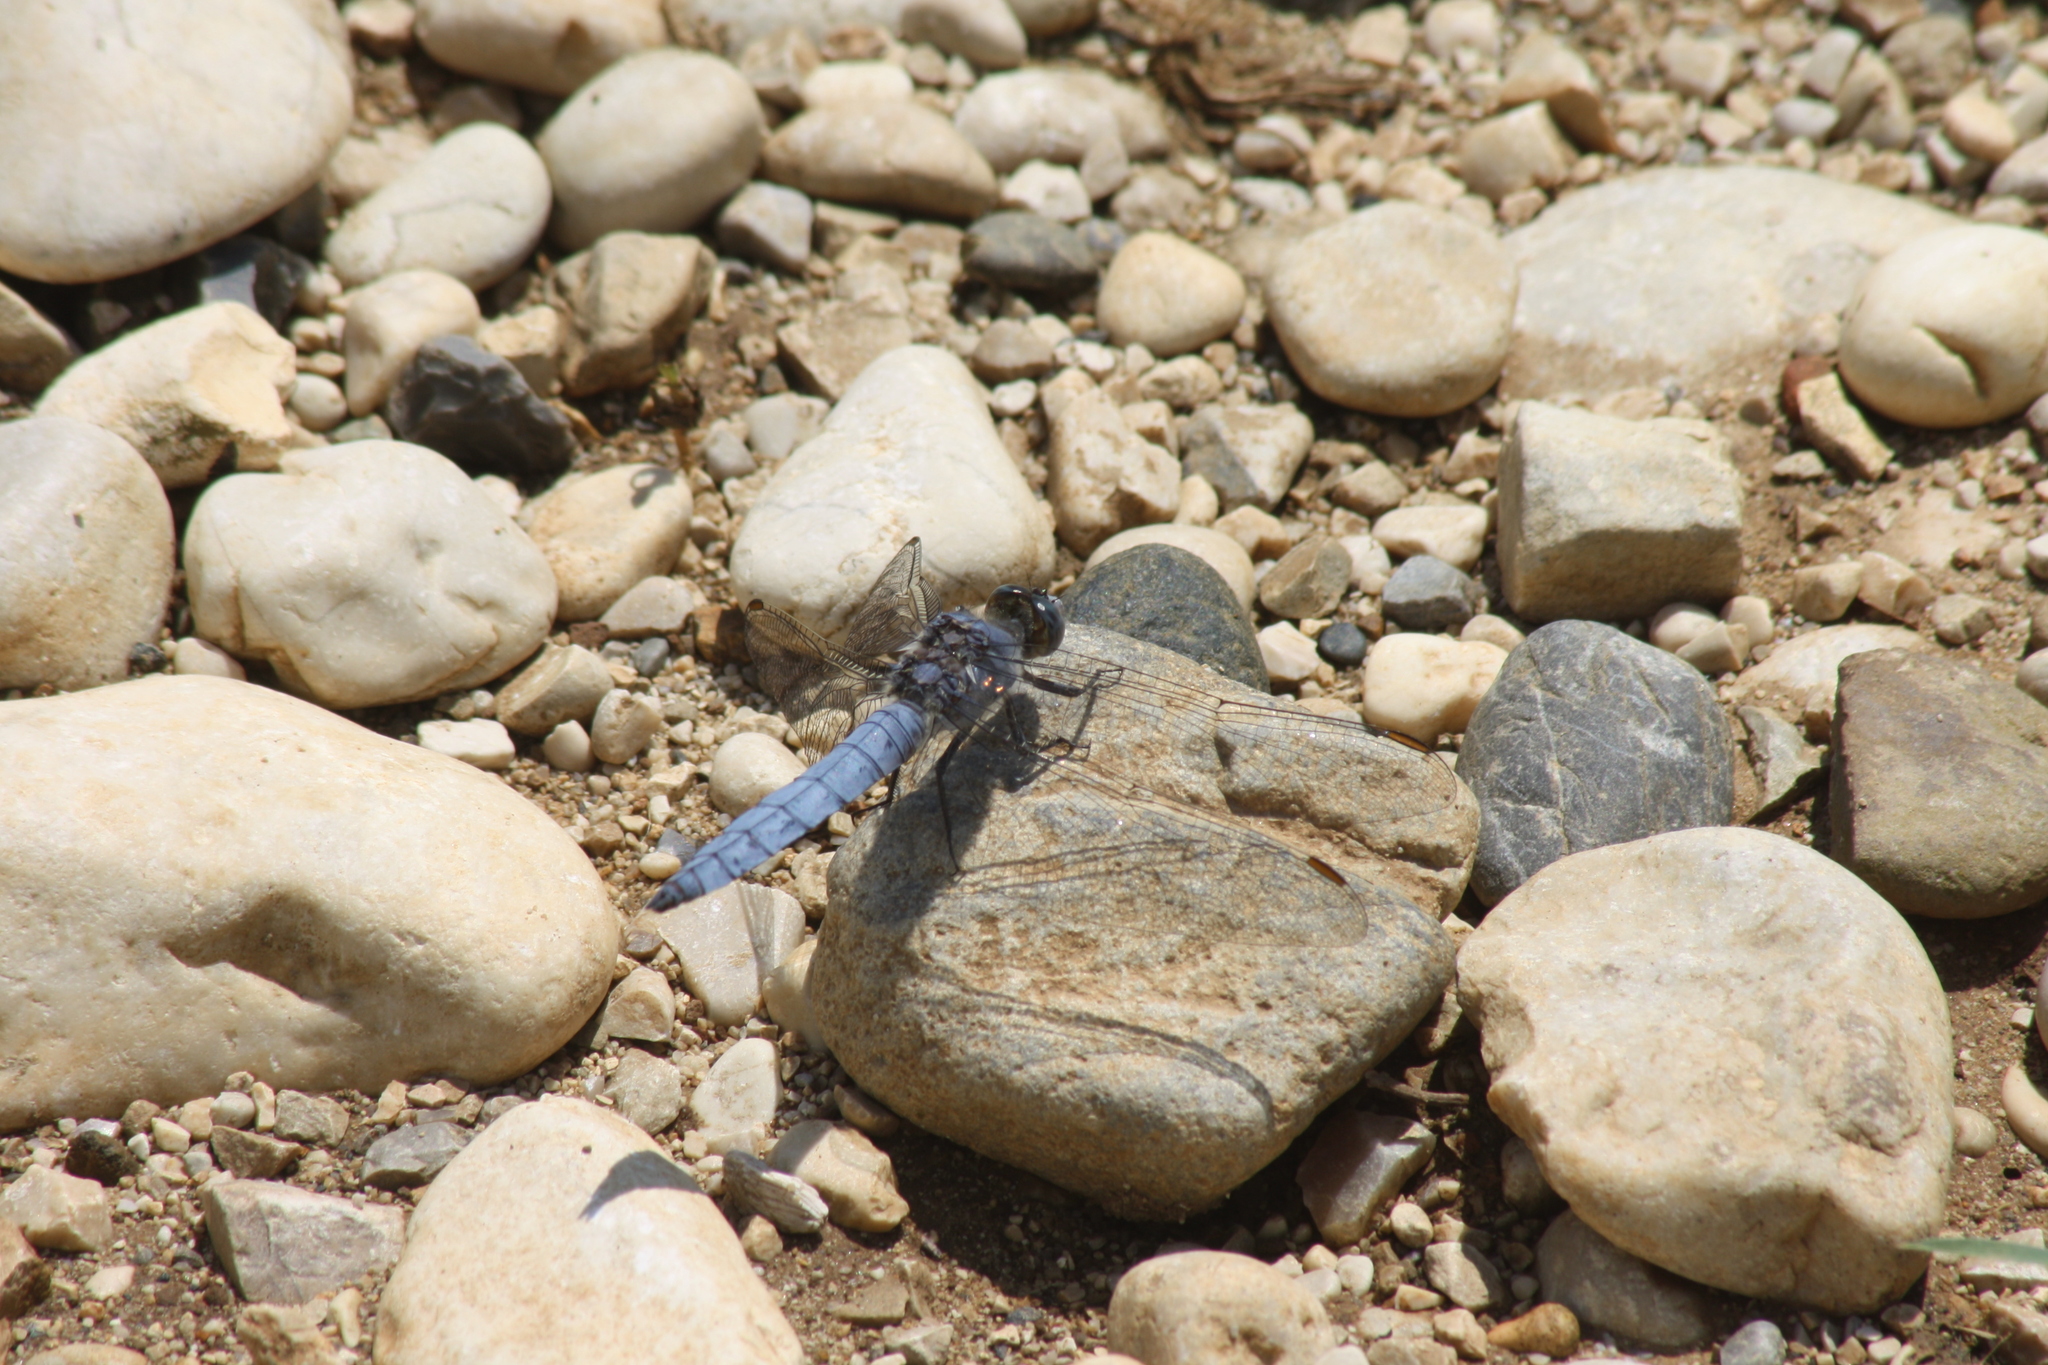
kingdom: Animalia
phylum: Arthropoda
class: Insecta
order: Odonata
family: Libellulidae
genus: Orthetrum
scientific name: Orthetrum brunneum
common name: Southern skimmer
